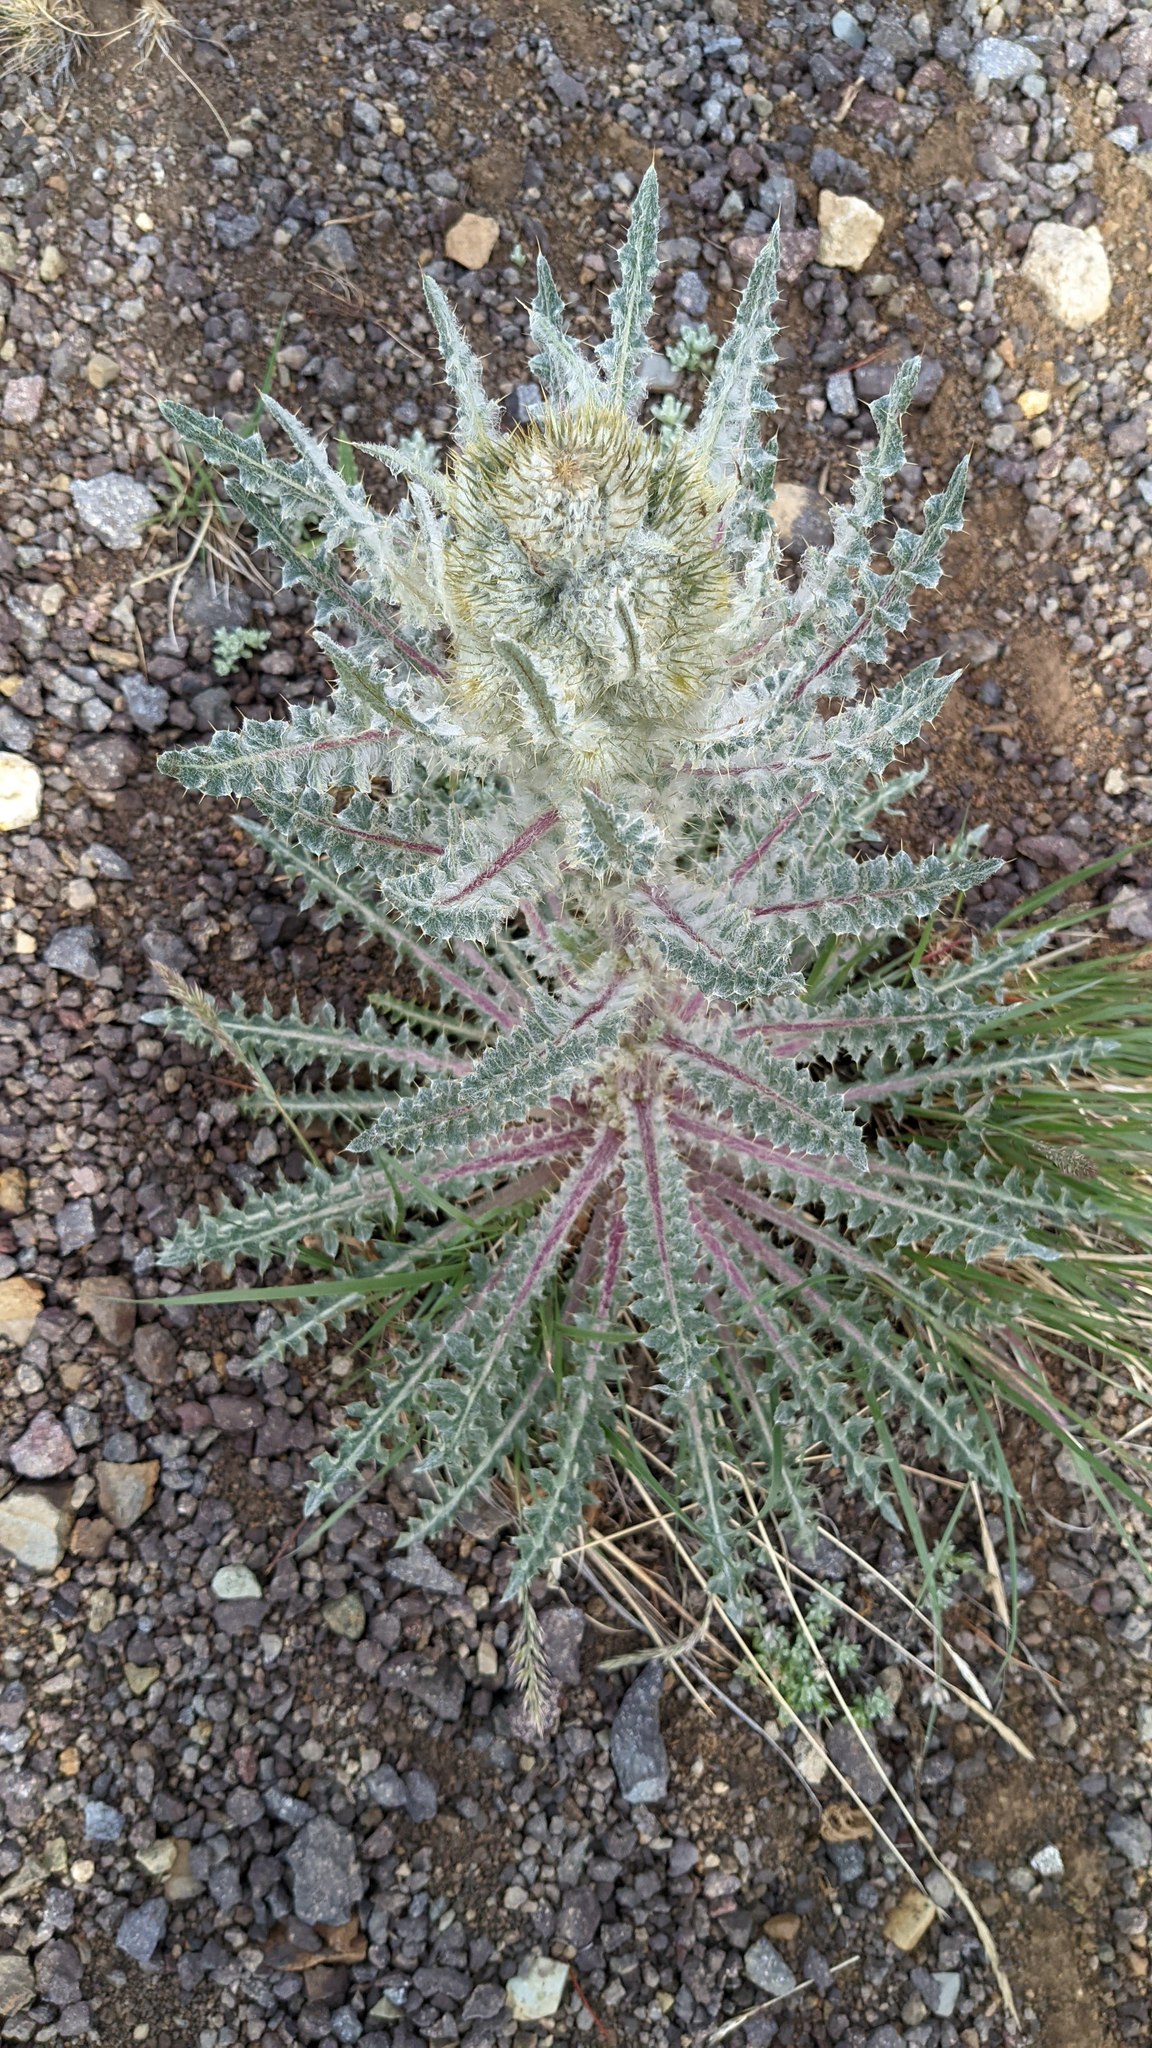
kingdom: Plantae
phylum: Tracheophyta
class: Magnoliopsida
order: Asterales
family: Asteraceae
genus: Cirsium
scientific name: Cirsium hookerianum
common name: Hooker's thistle
